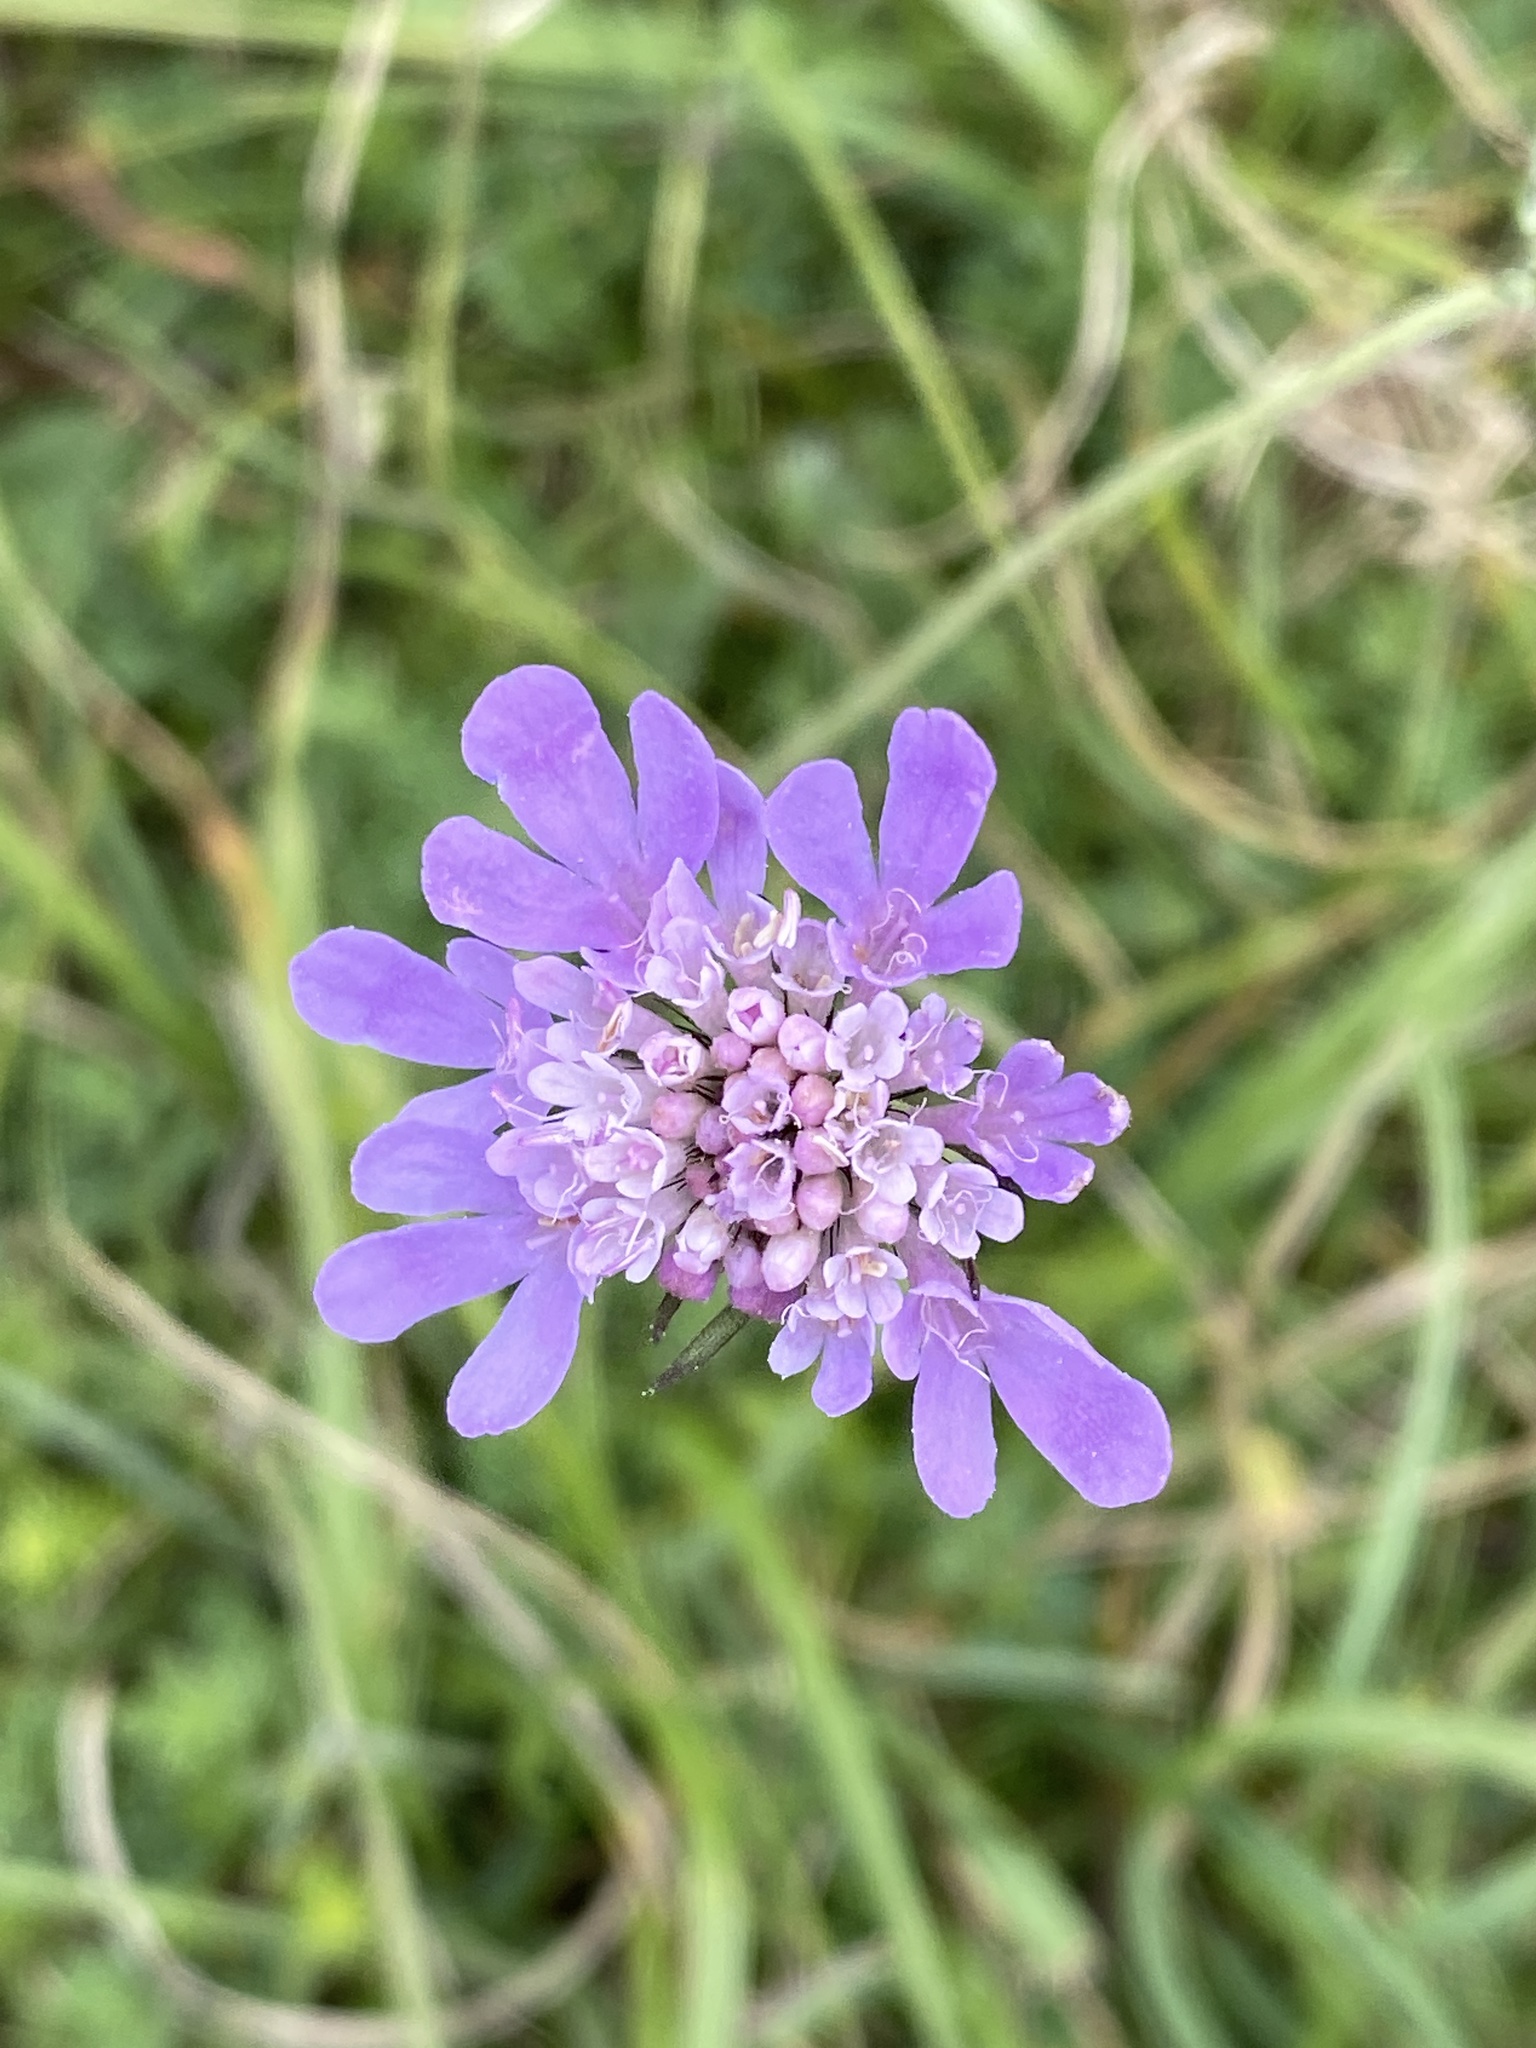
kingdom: Plantae
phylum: Tracheophyta
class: Magnoliopsida
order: Dipsacales
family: Caprifoliaceae
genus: Scabiosa
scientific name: Scabiosa columbaria
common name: Small scabious
